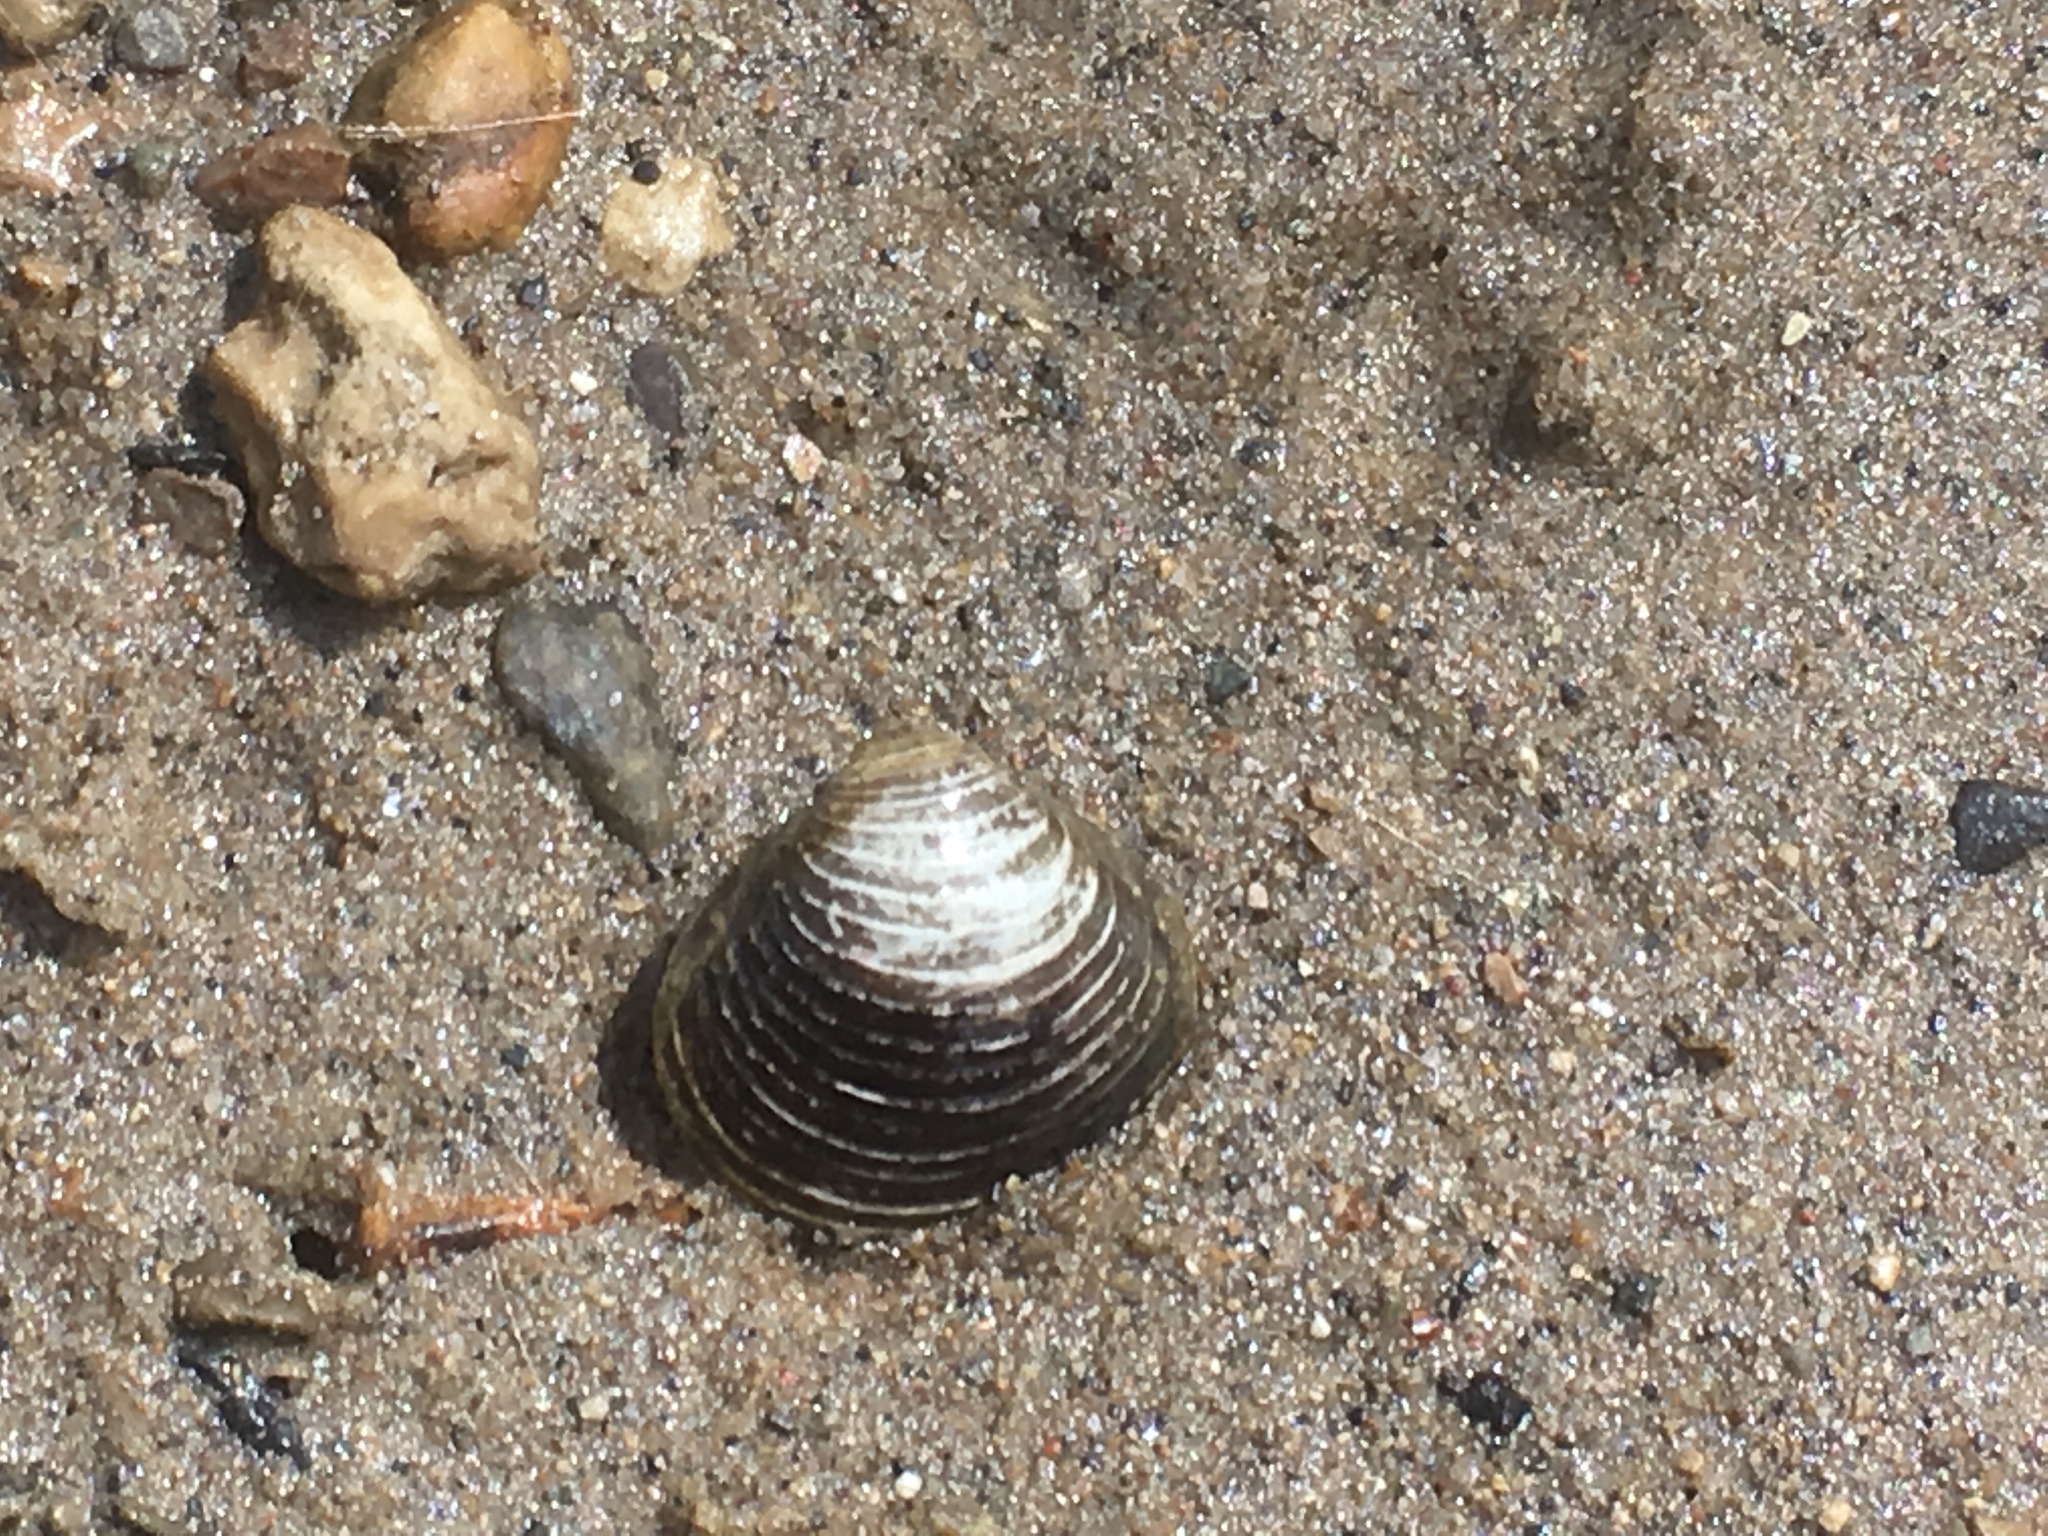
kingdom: Animalia
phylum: Mollusca
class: Bivalvia
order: Venerida
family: Cyrenidae
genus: Corbicula
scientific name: Corbicula fluminea
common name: Asian clam
